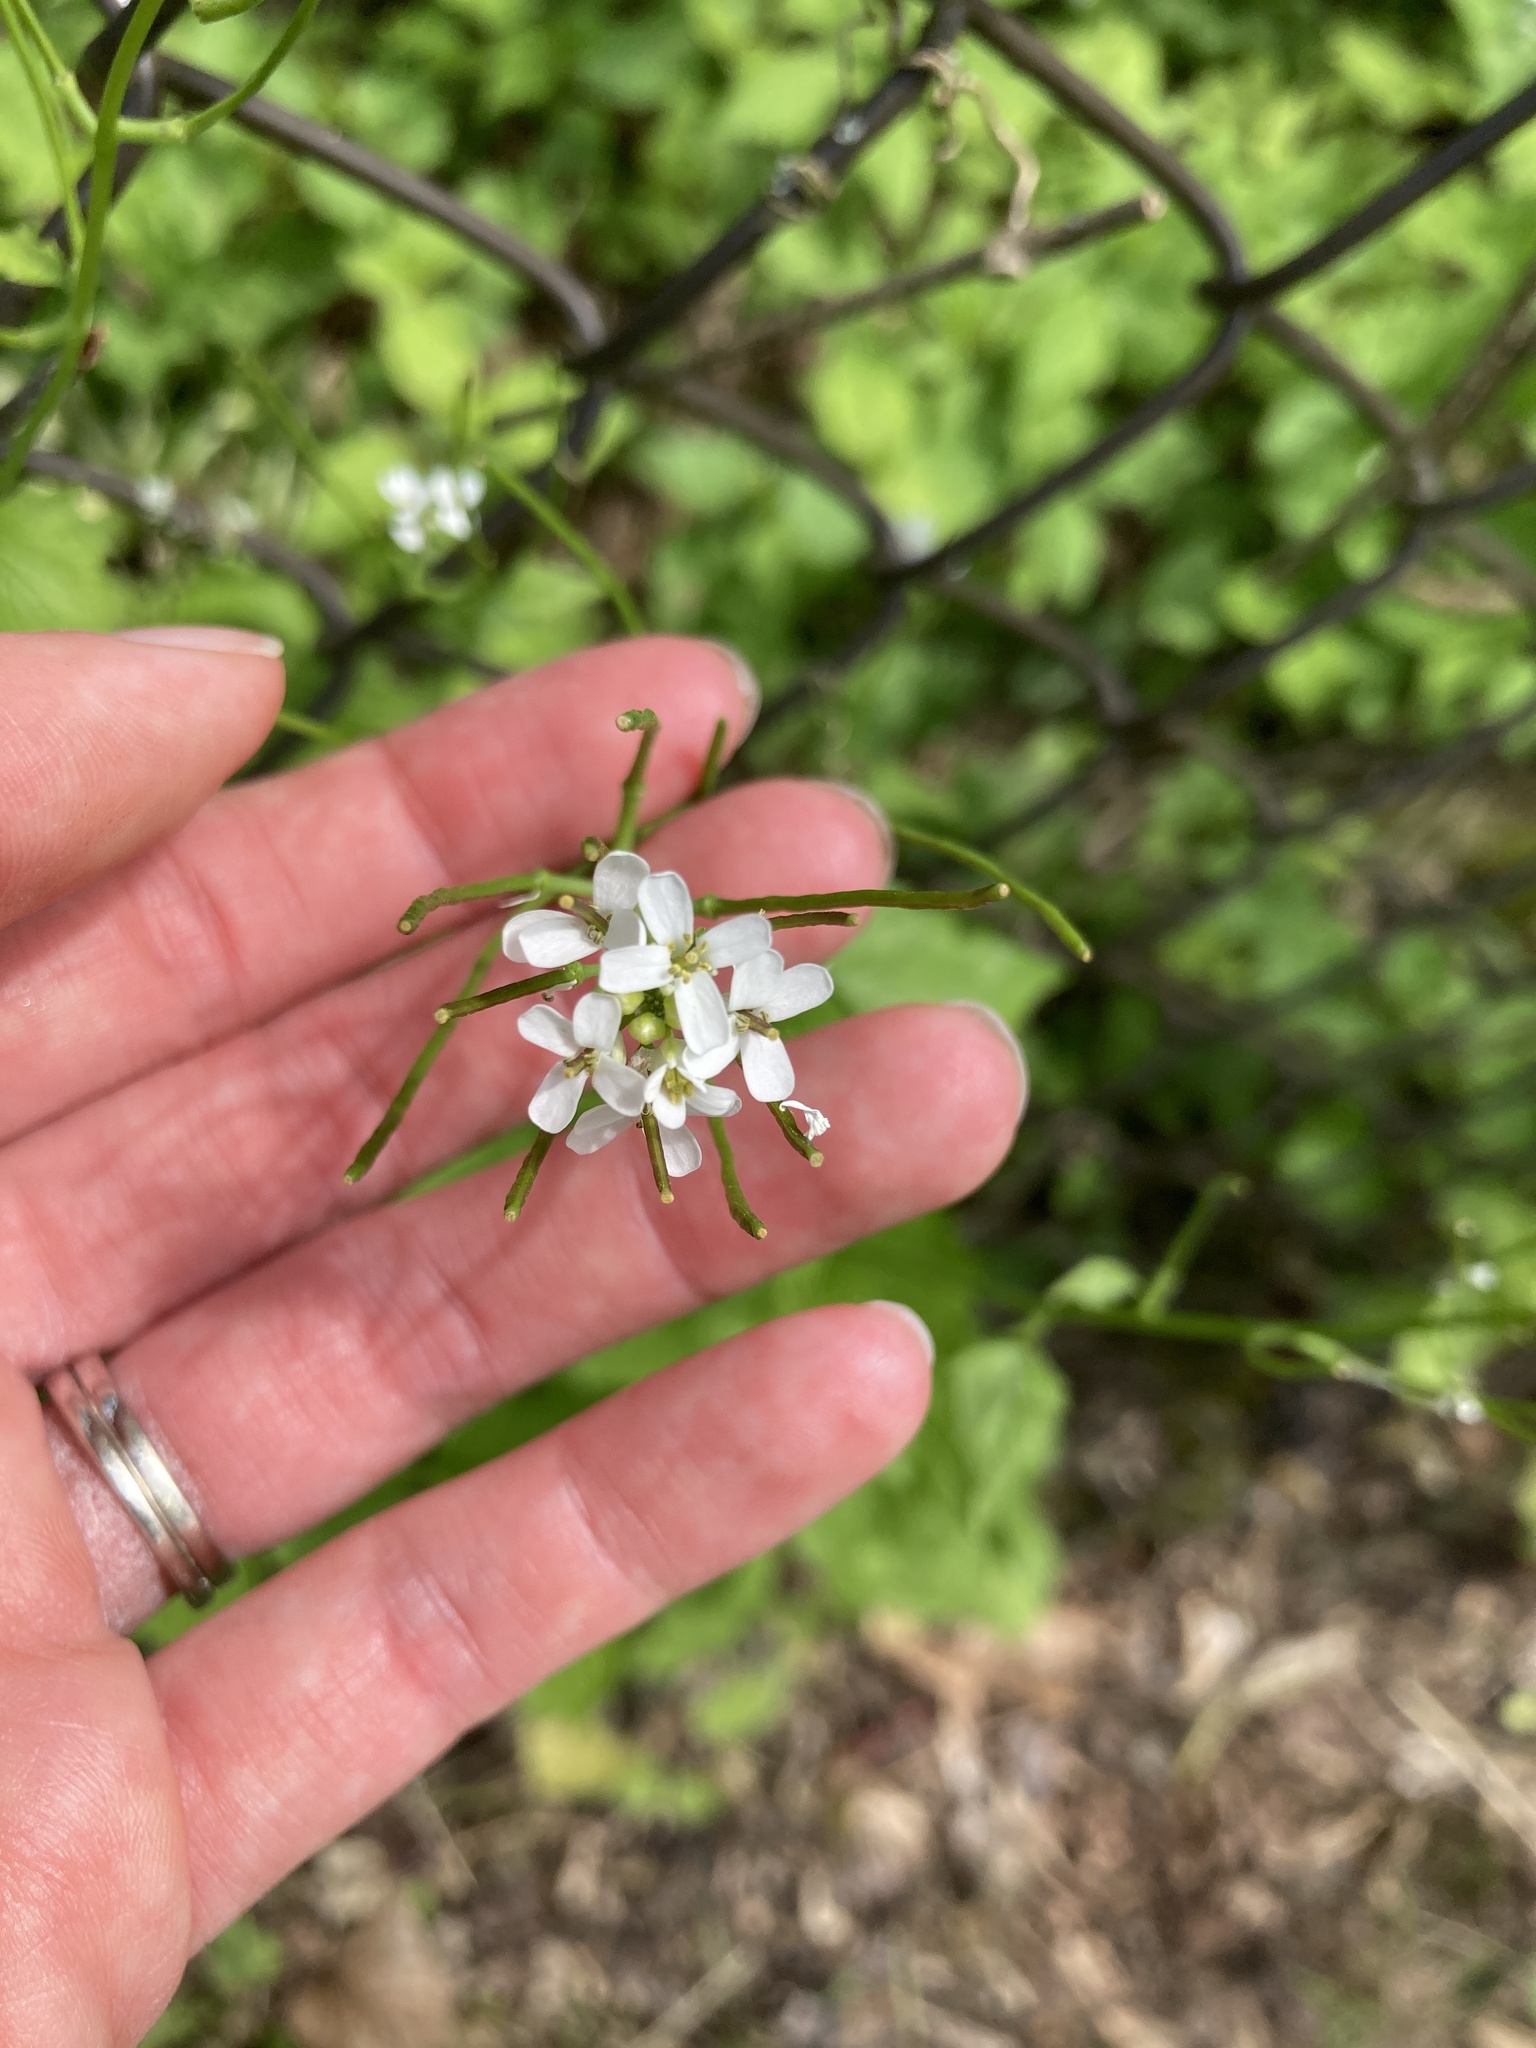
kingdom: Plantae
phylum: Tracheophyta
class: Magnoliopsida
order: Brassicales
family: Brassicaceae
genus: Alliaria
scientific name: Alliaria petiolata
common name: Garlic mustard
